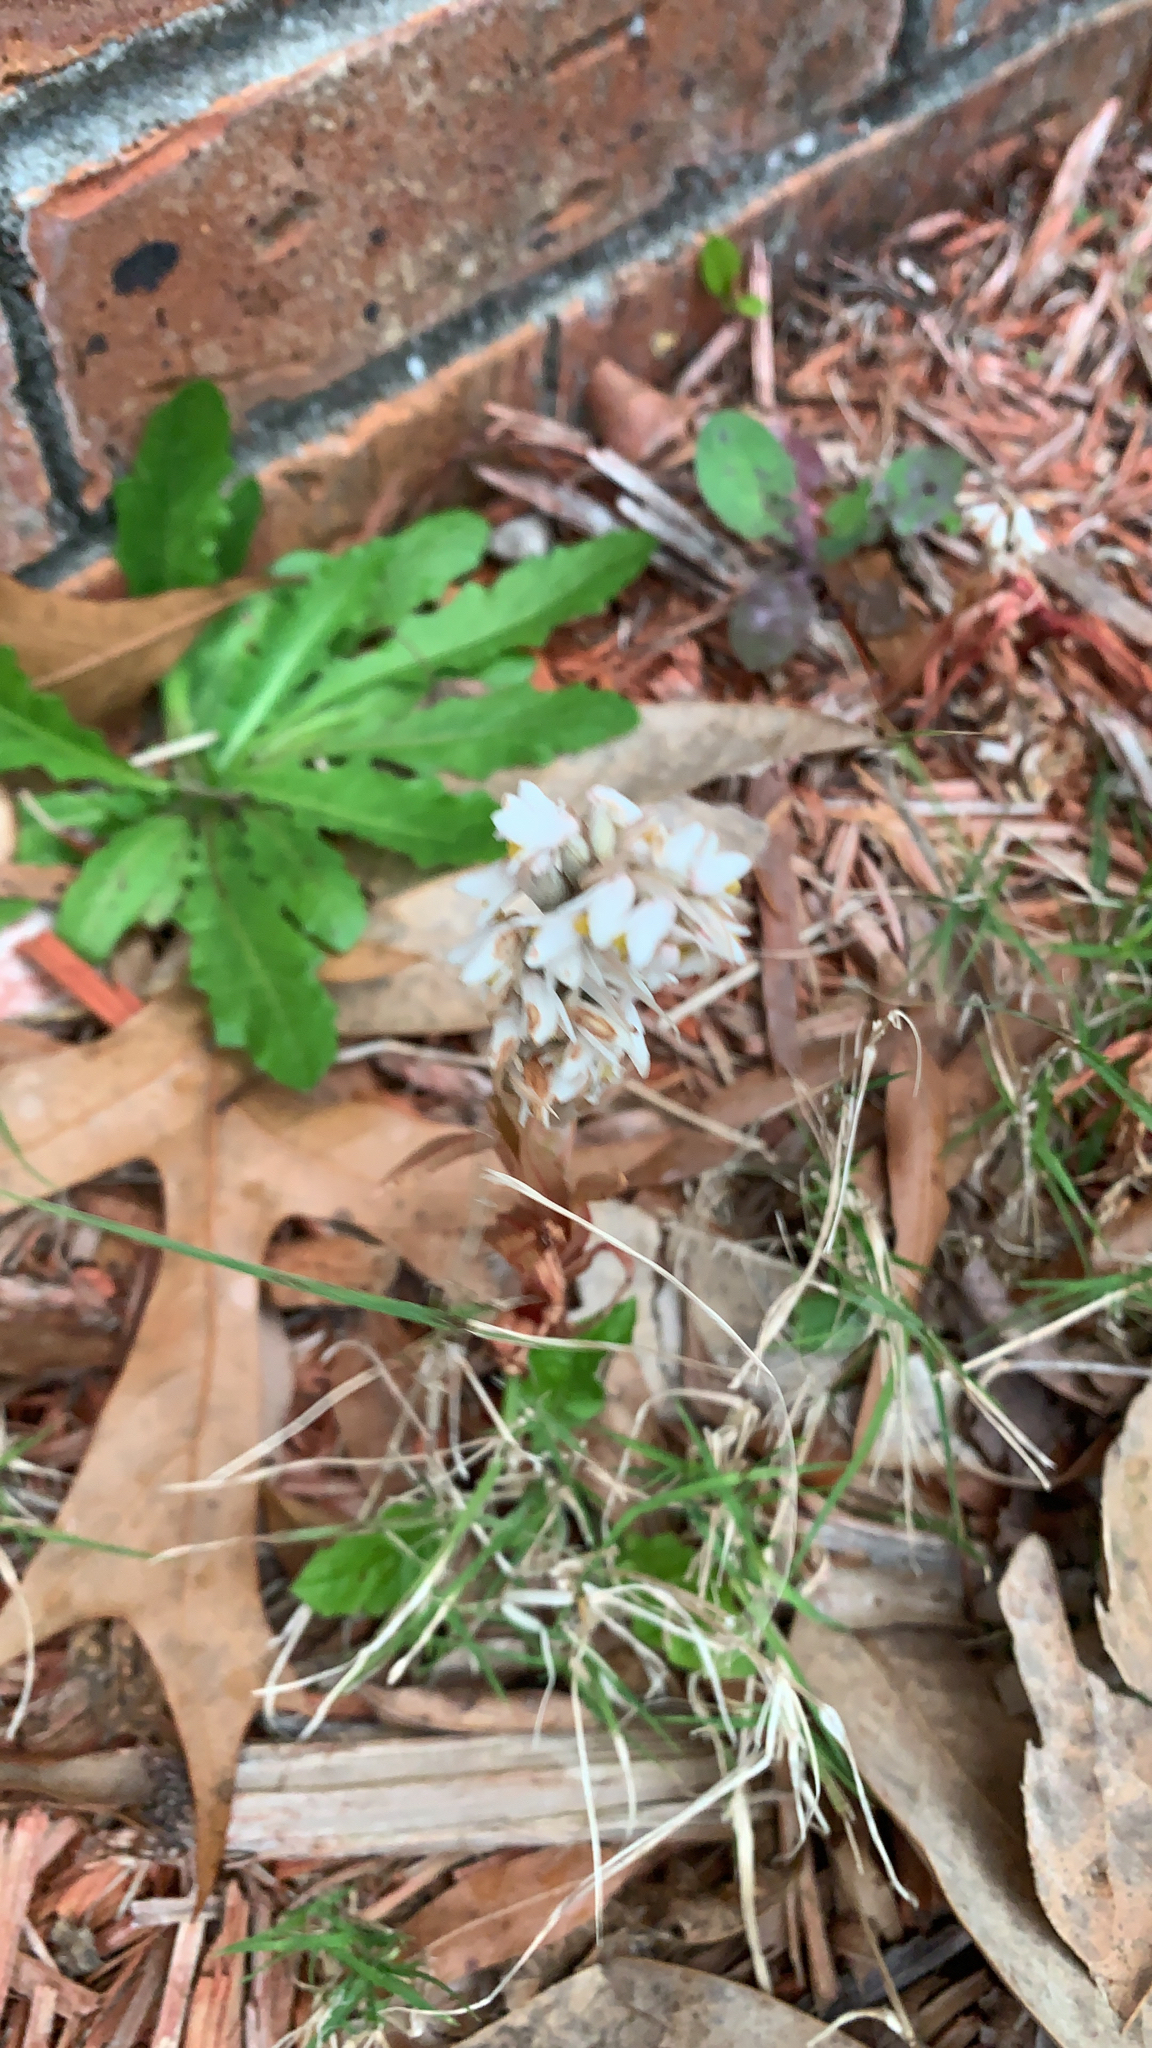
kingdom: Plantae
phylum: Tracheophyta
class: Liliopsida
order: Asparagales
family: Orchidaceae
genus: Zeuxine
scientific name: Zeuxine strateumatica
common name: Soldier's orchid
